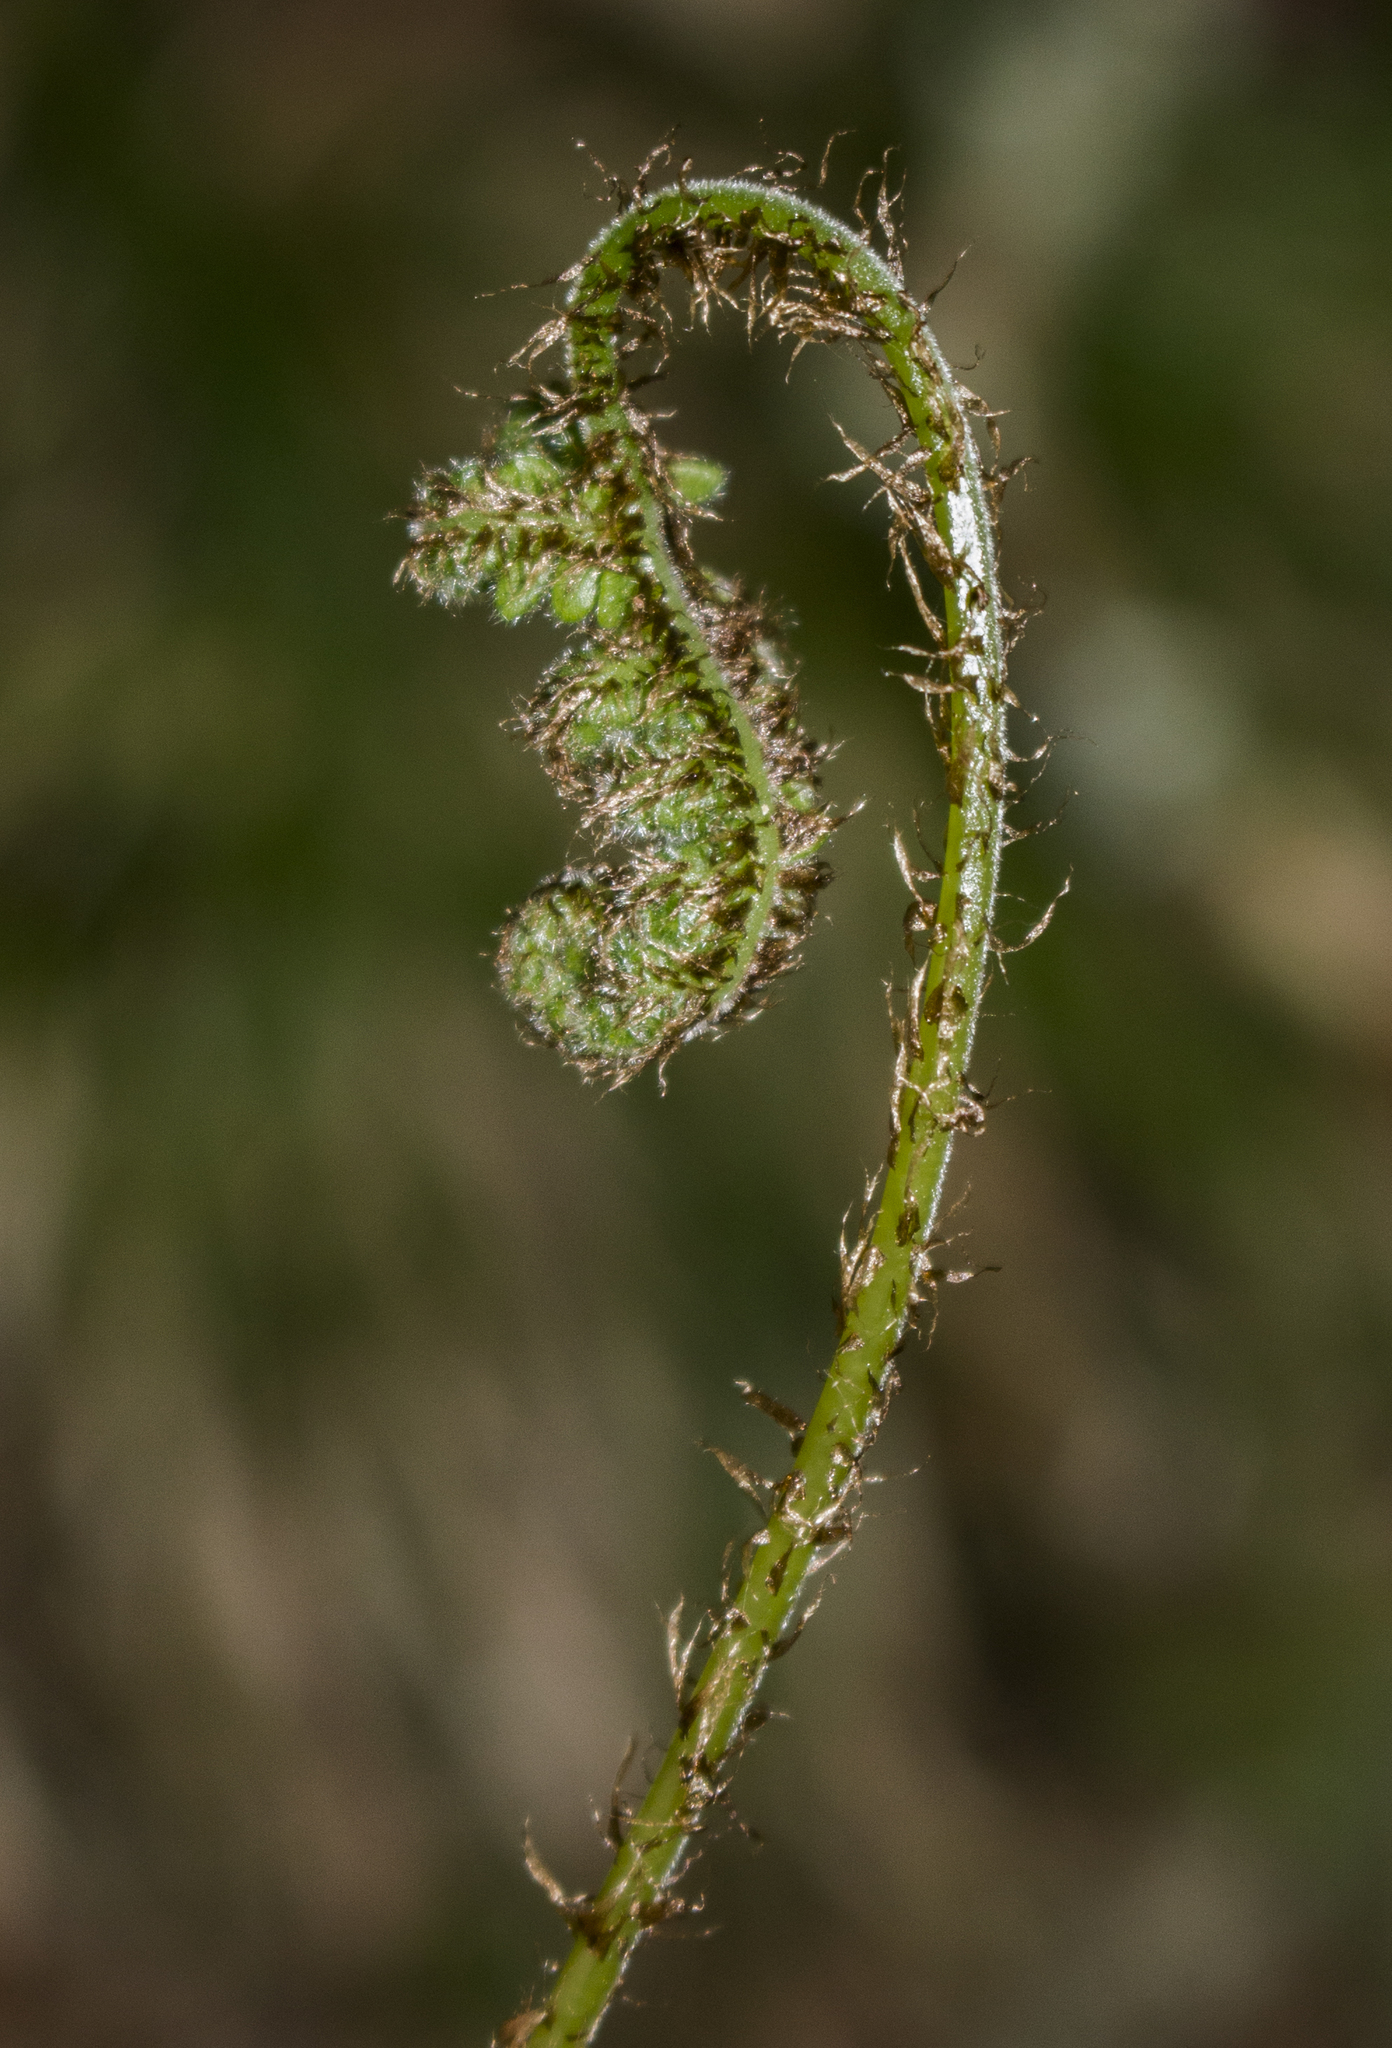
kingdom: Plantae
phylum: Tracheophyta
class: Polypodiopsida
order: Polypodiales
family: Thelypteridaceae
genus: Phegopteris
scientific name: Phegopteris connectilis
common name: Beech fern
